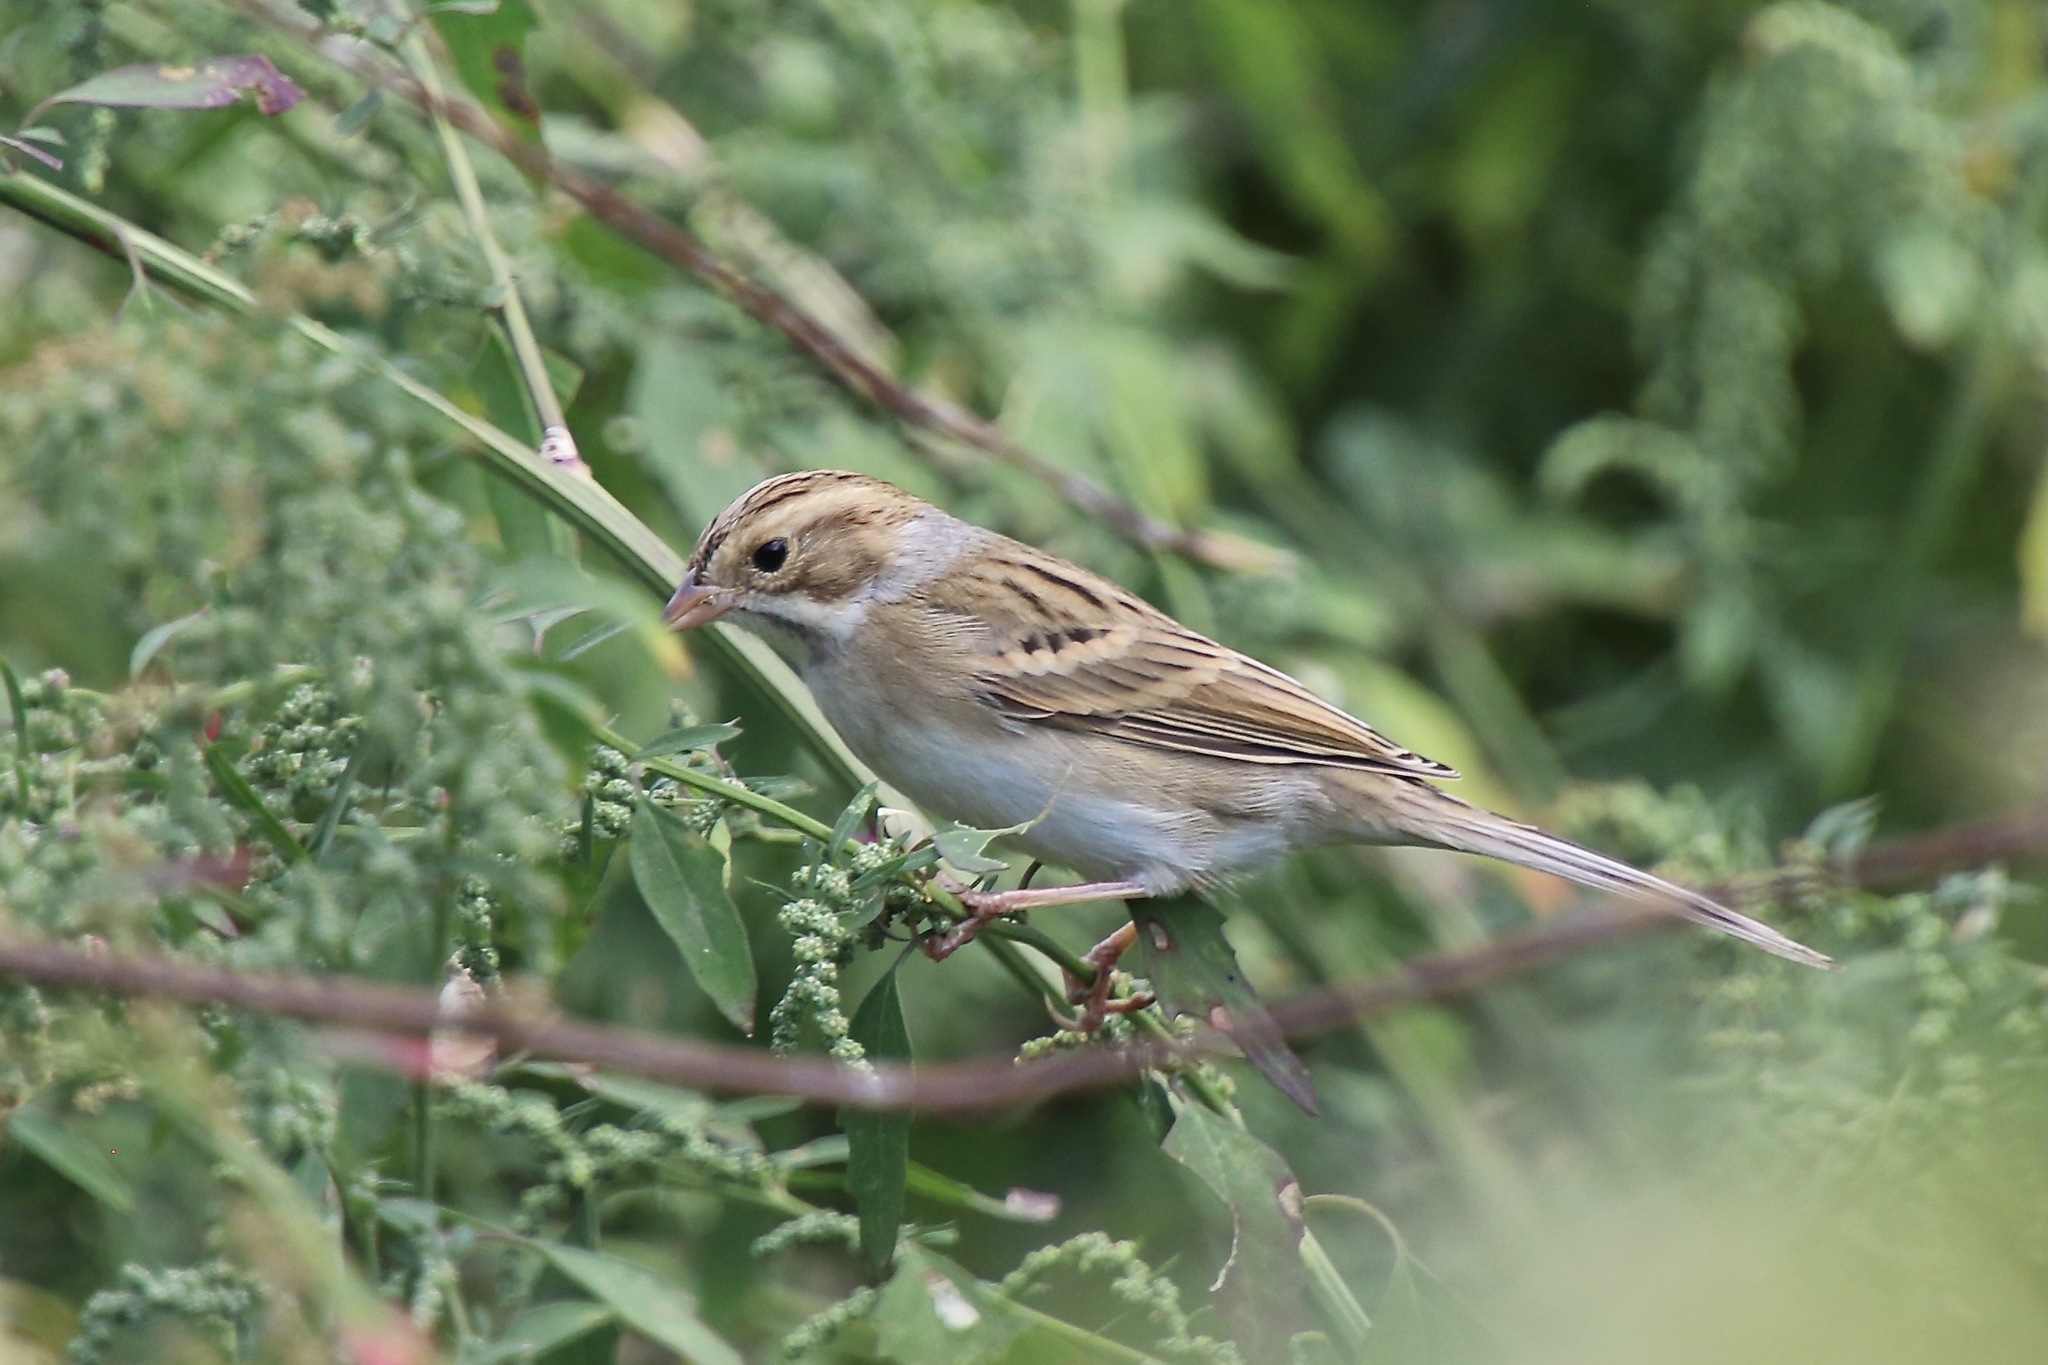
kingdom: Animalia
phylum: Chordata
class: Aves
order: Passeriformes
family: Passerellidae
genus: Spizella
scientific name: Spizella pallida
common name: Clay-colored sparrow
